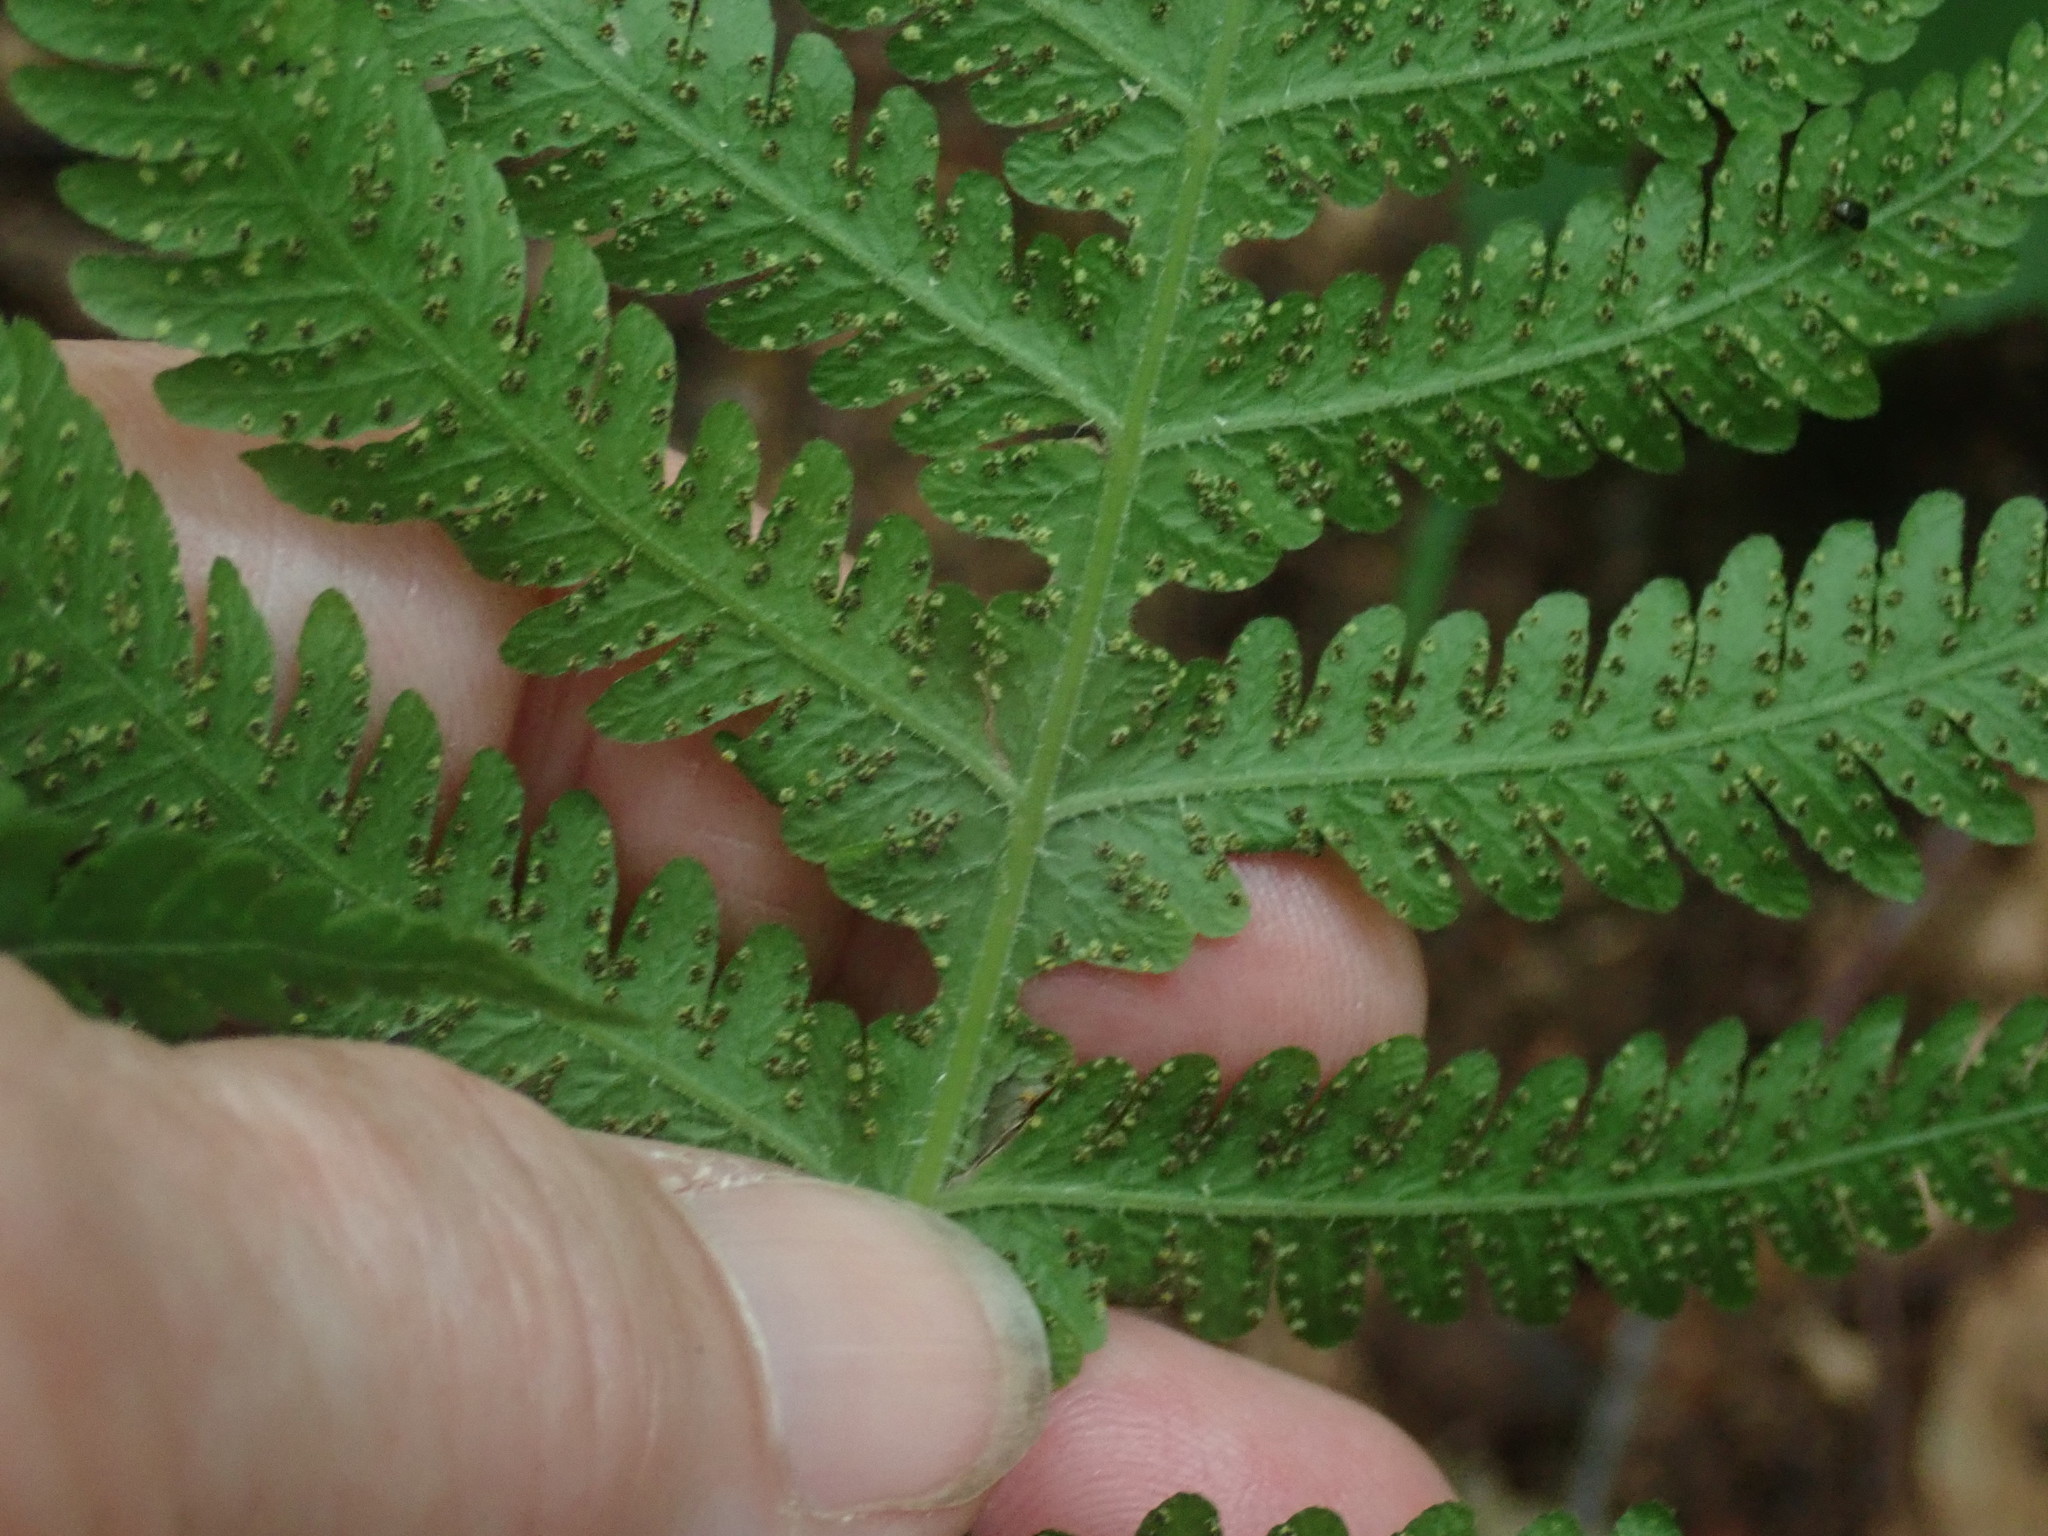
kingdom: Plantae
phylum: Tracheophyta
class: Polypodiopsida
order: Polypodiales
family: Thelypteridaceae
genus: Phegopteris
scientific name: Phegopteris hexagonoptera
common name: Broad beech fern
